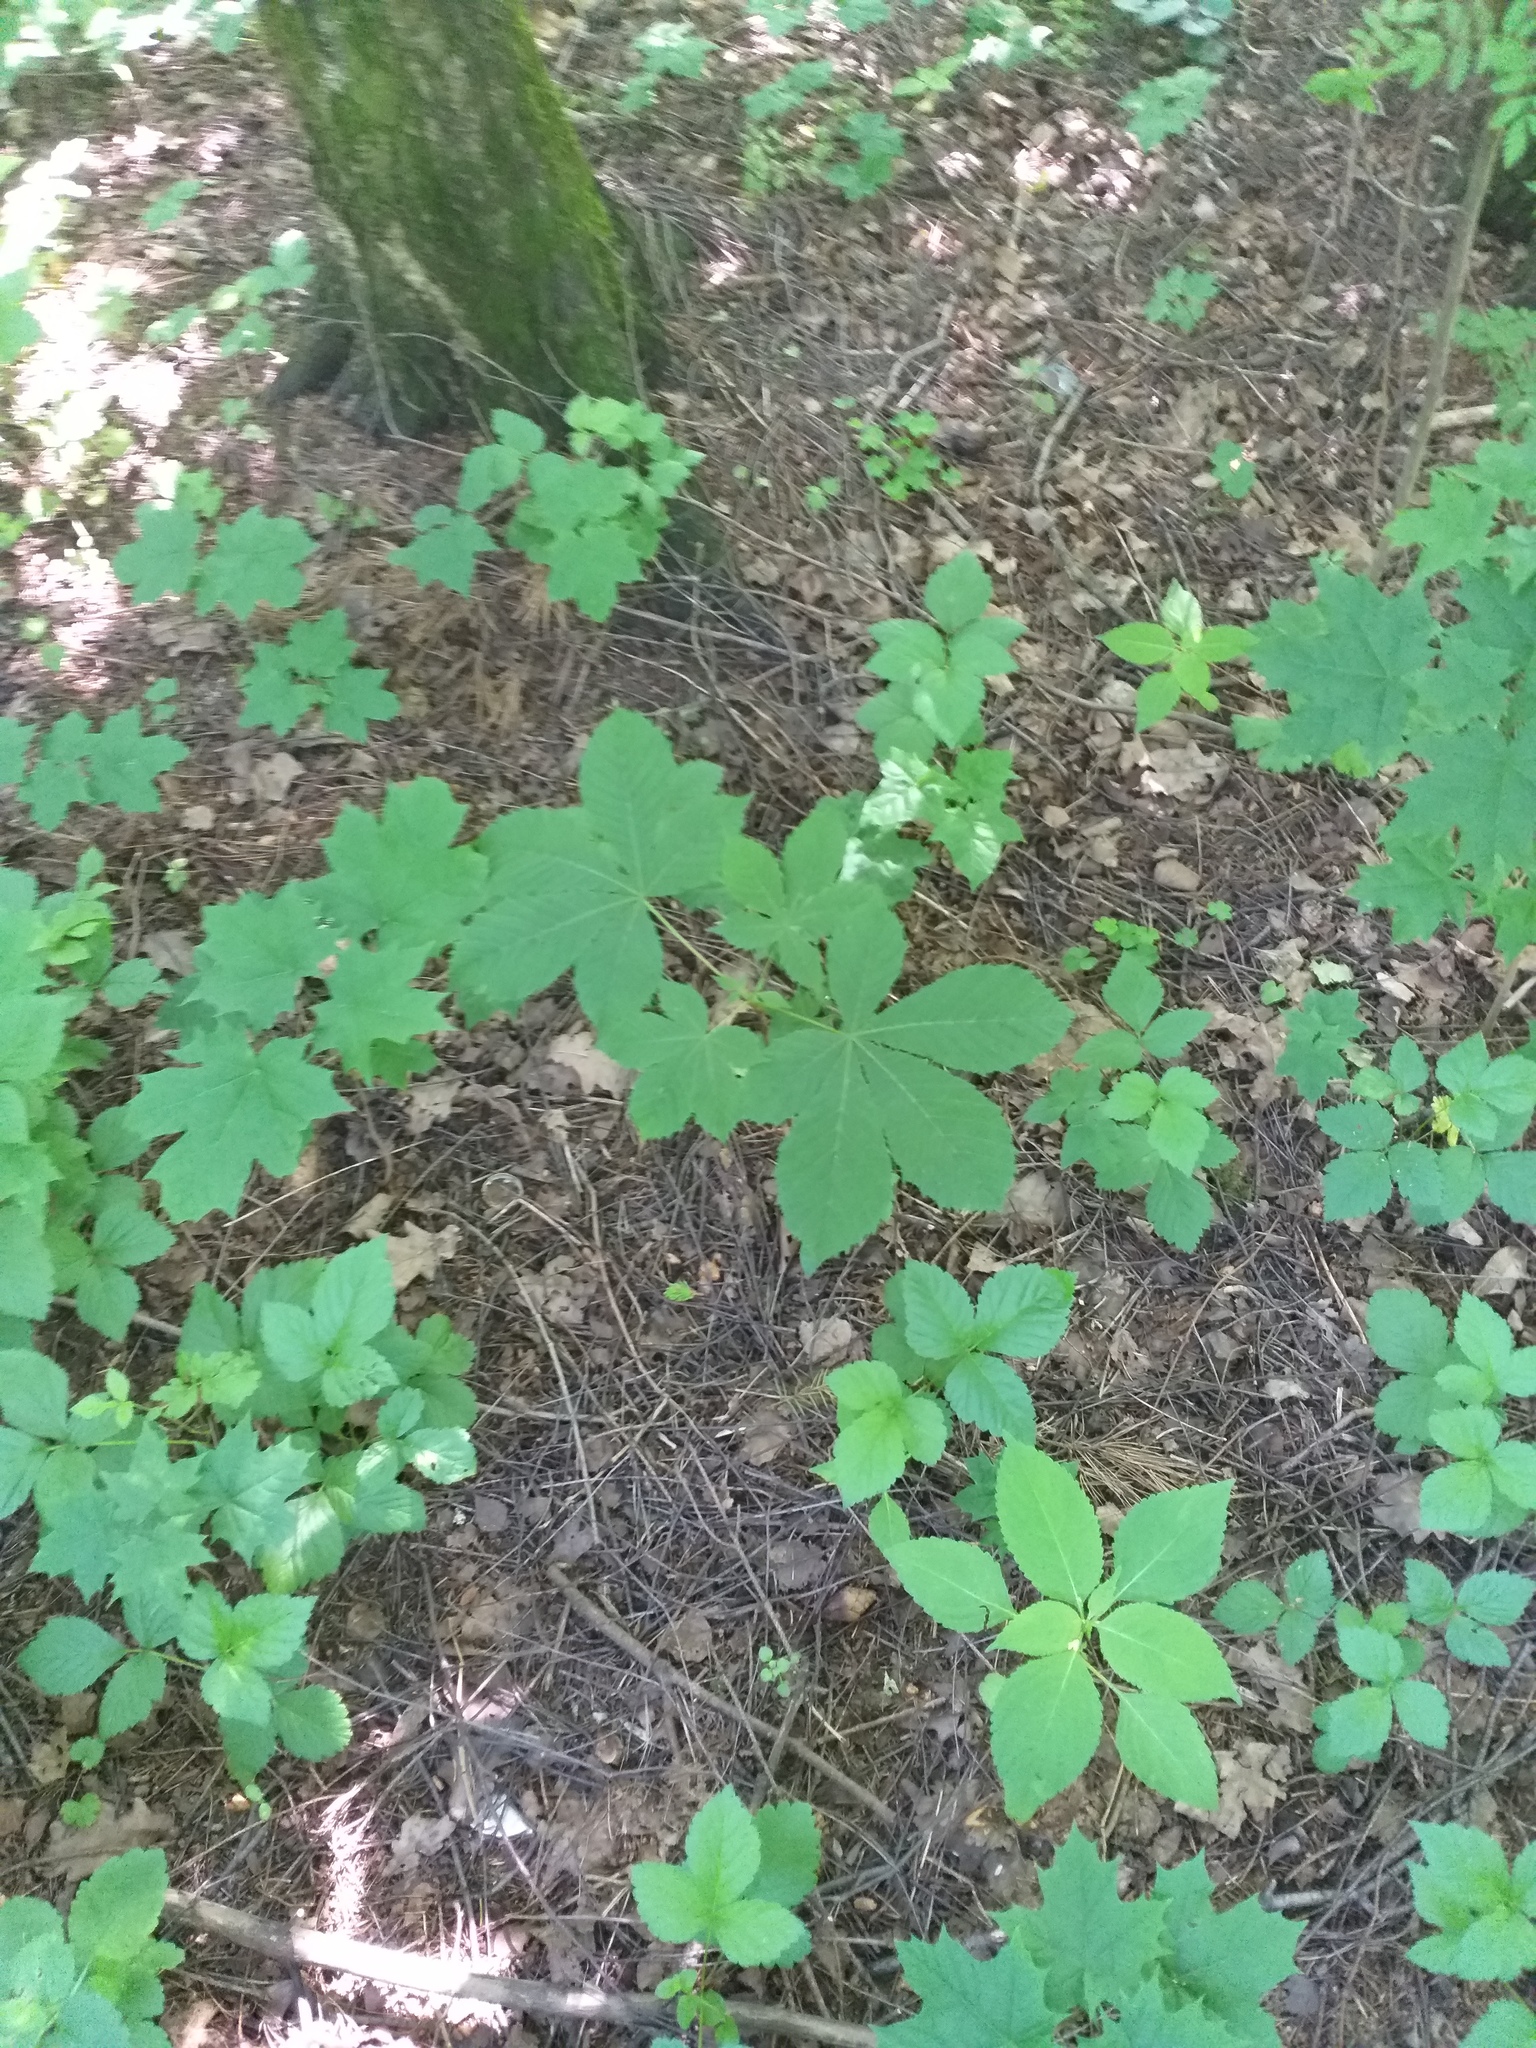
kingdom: Plantae
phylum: Tracheophyta
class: Magnoliopsida
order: Sapindales
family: Sapindaceae
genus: Aesculus
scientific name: Aesculus hippocastanum
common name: Horse-chestnut
